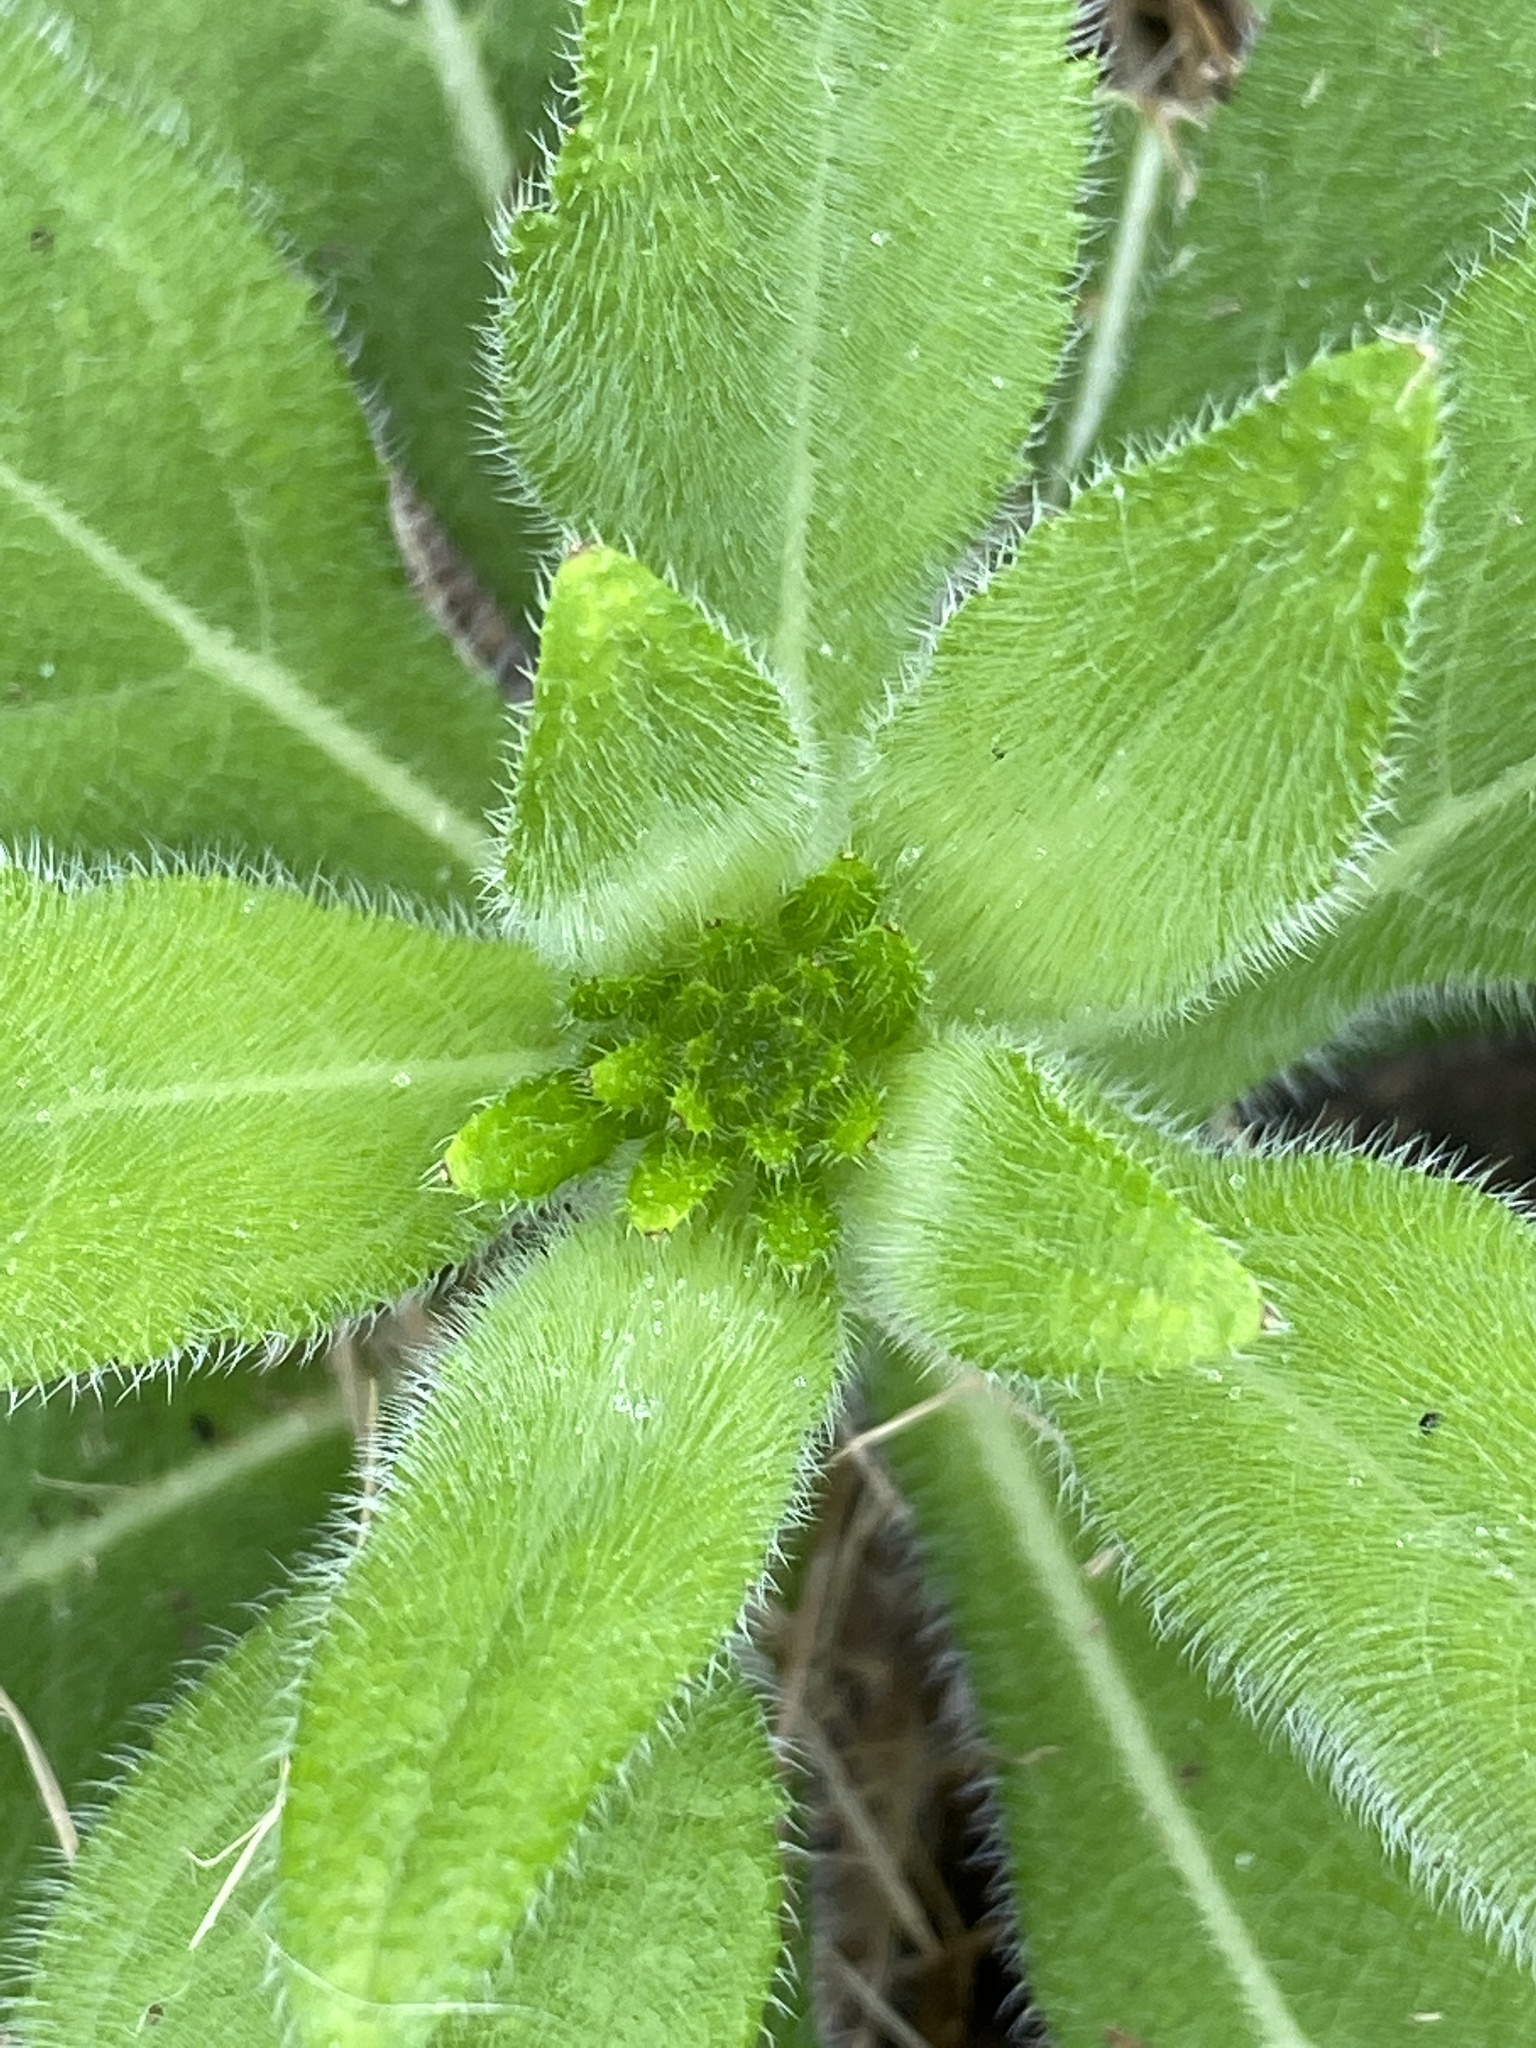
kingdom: Plantae
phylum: Tracheophyta
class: Magnoliopsida
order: Asterales
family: Asteraceae
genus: Rudbeckia
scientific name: Rudbeckia hirta
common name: Black-eyed-susan
